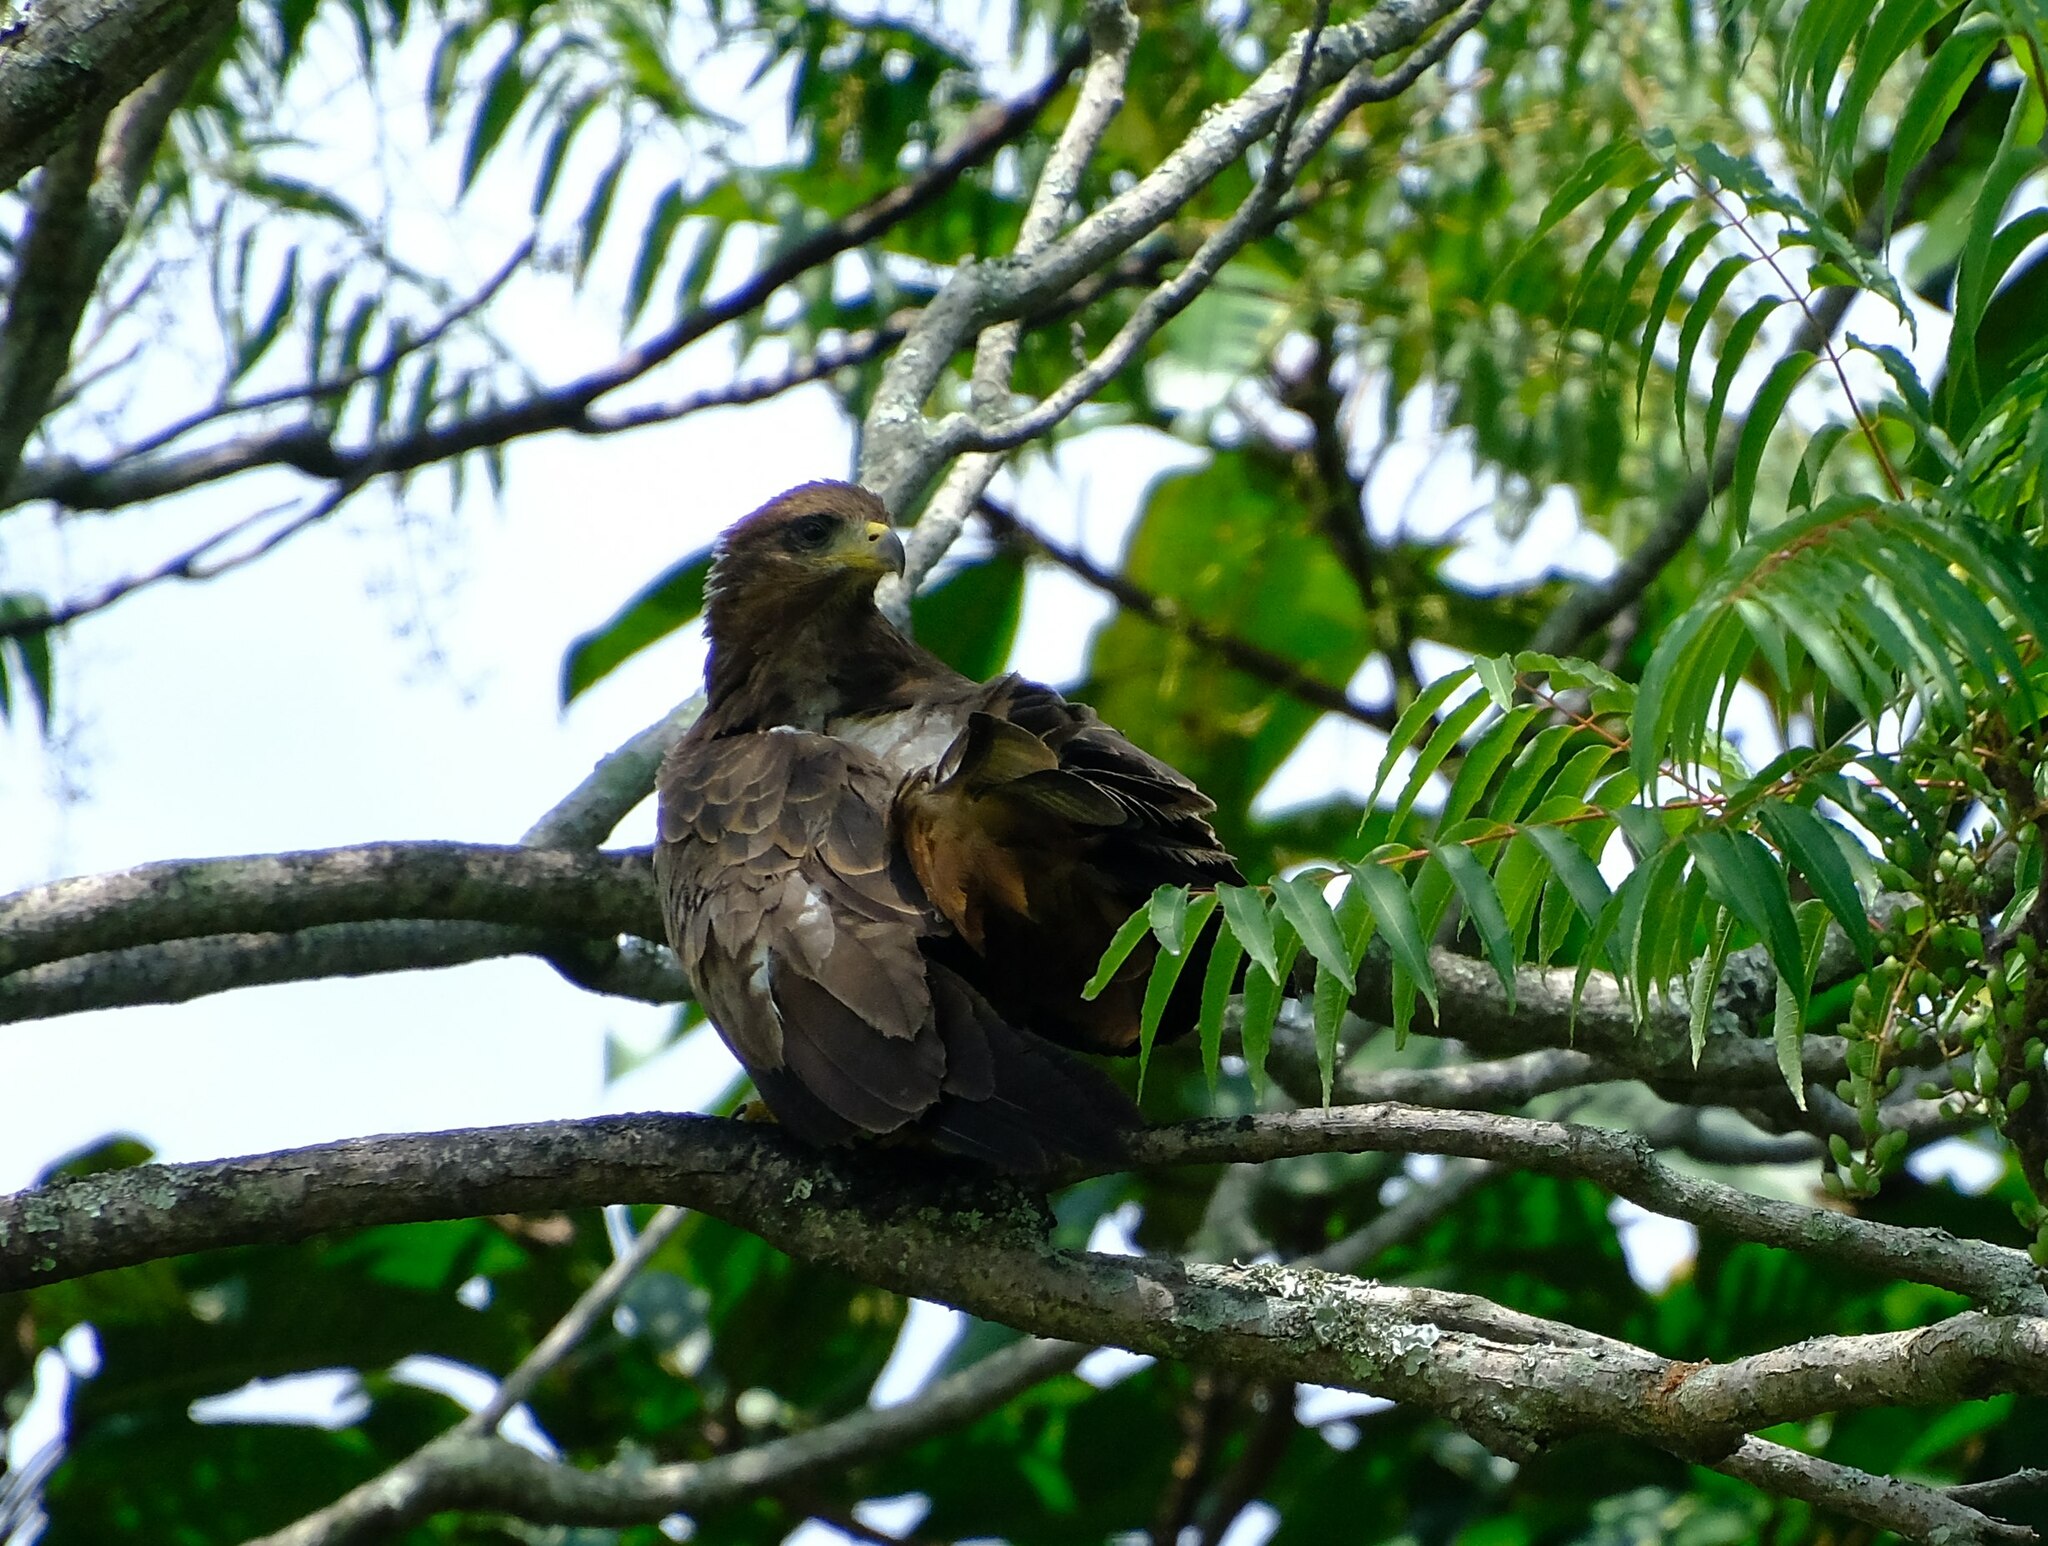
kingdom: Animalia
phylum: Chordata
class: Aves
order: Accipitriformes
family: Accipitridae
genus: Milvus
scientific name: Milvus migrans
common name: Black kite
